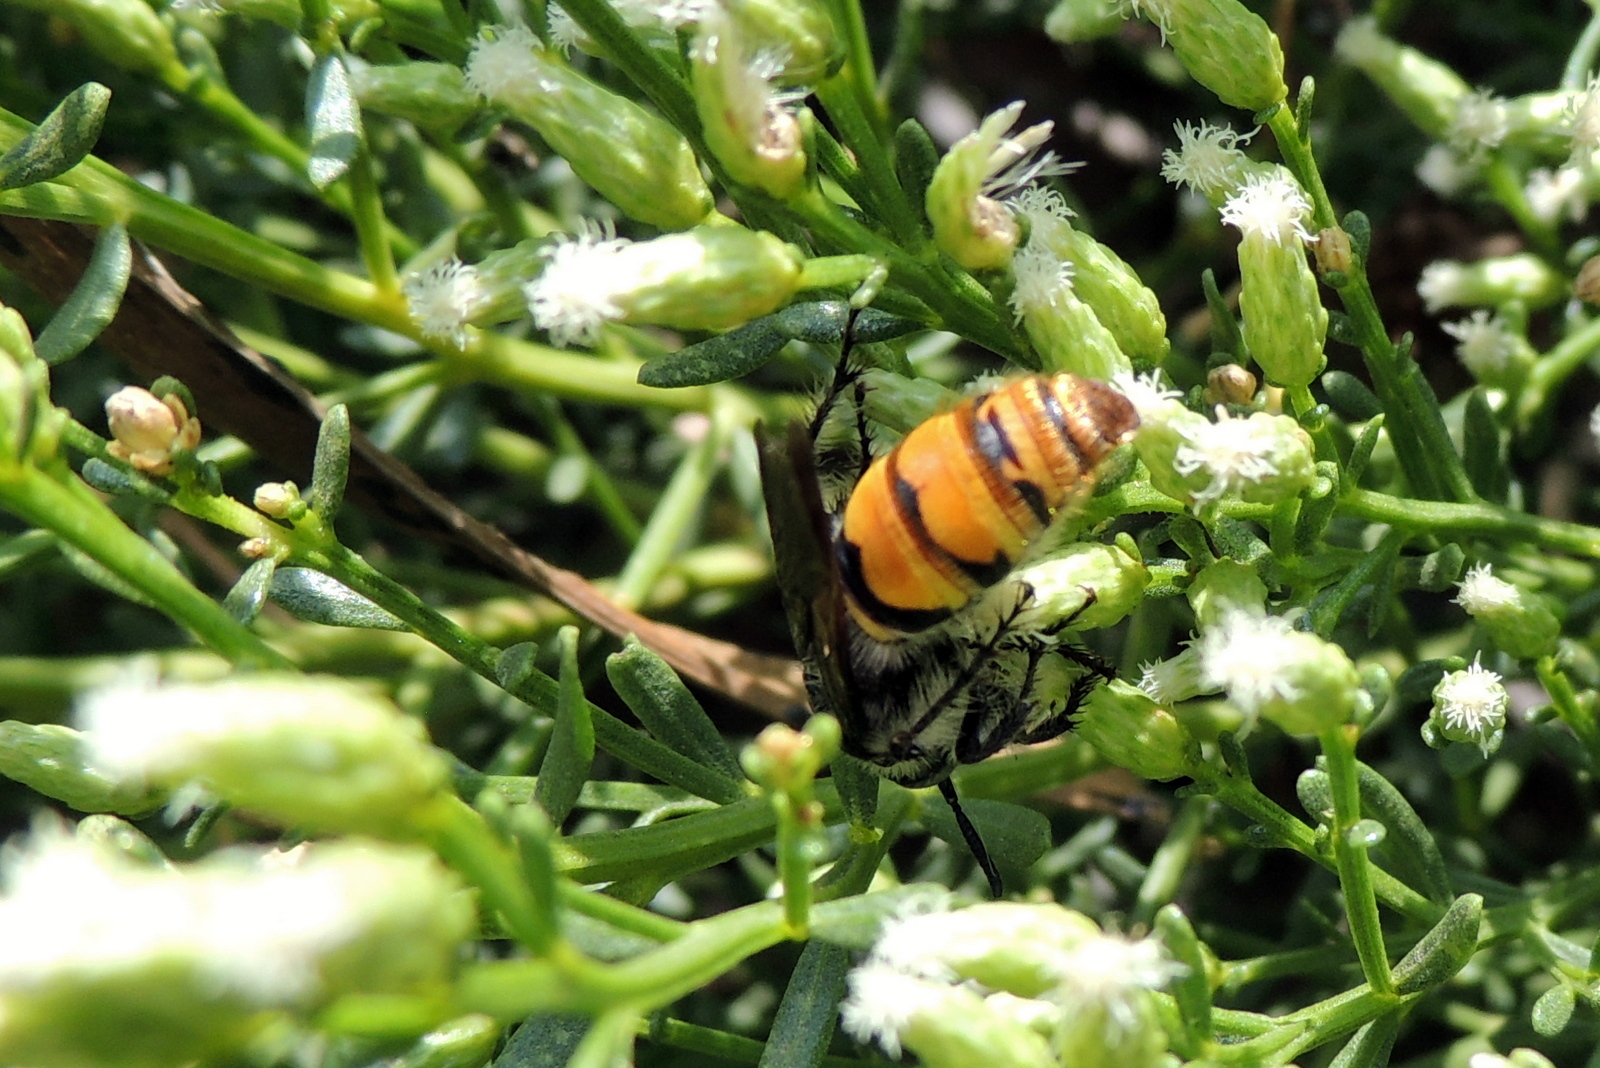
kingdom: Animalia
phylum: Arthropoda
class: Insecta
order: Hymenoptera
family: Scoliidae
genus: Dielis
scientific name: Dielis tolteca
